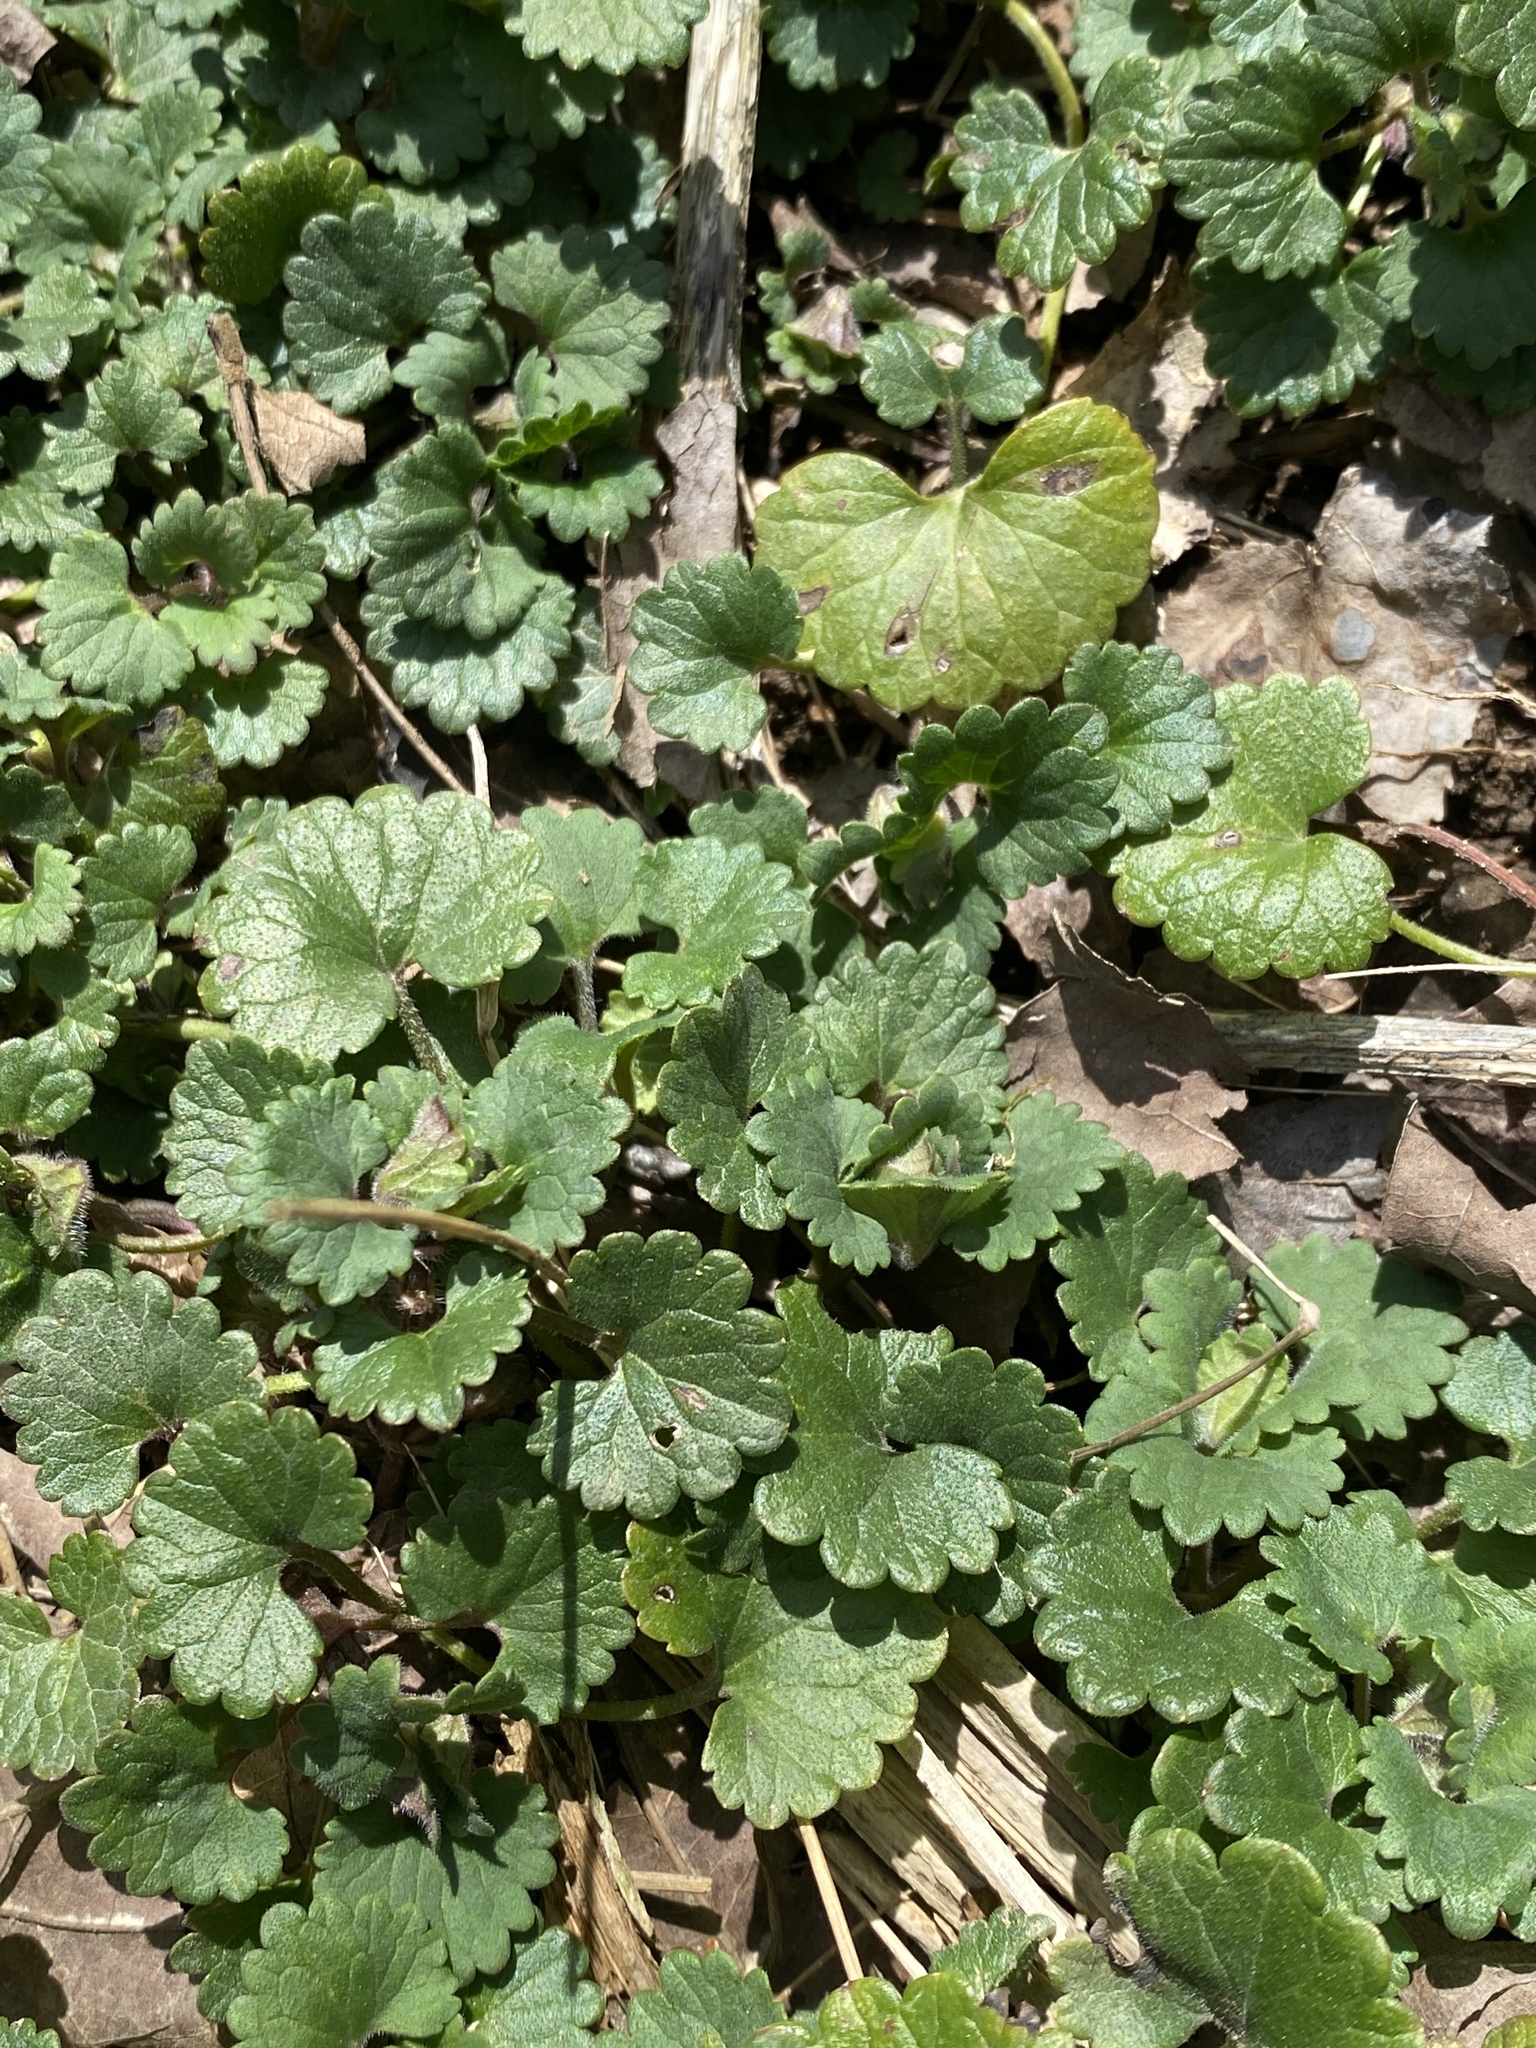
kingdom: Plantae
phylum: Tracheophyta
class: Magnoliopsida
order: Lamiales
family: Lamiaceae
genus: Glechoma
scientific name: Glechoma hederacea
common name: Ground ivy
